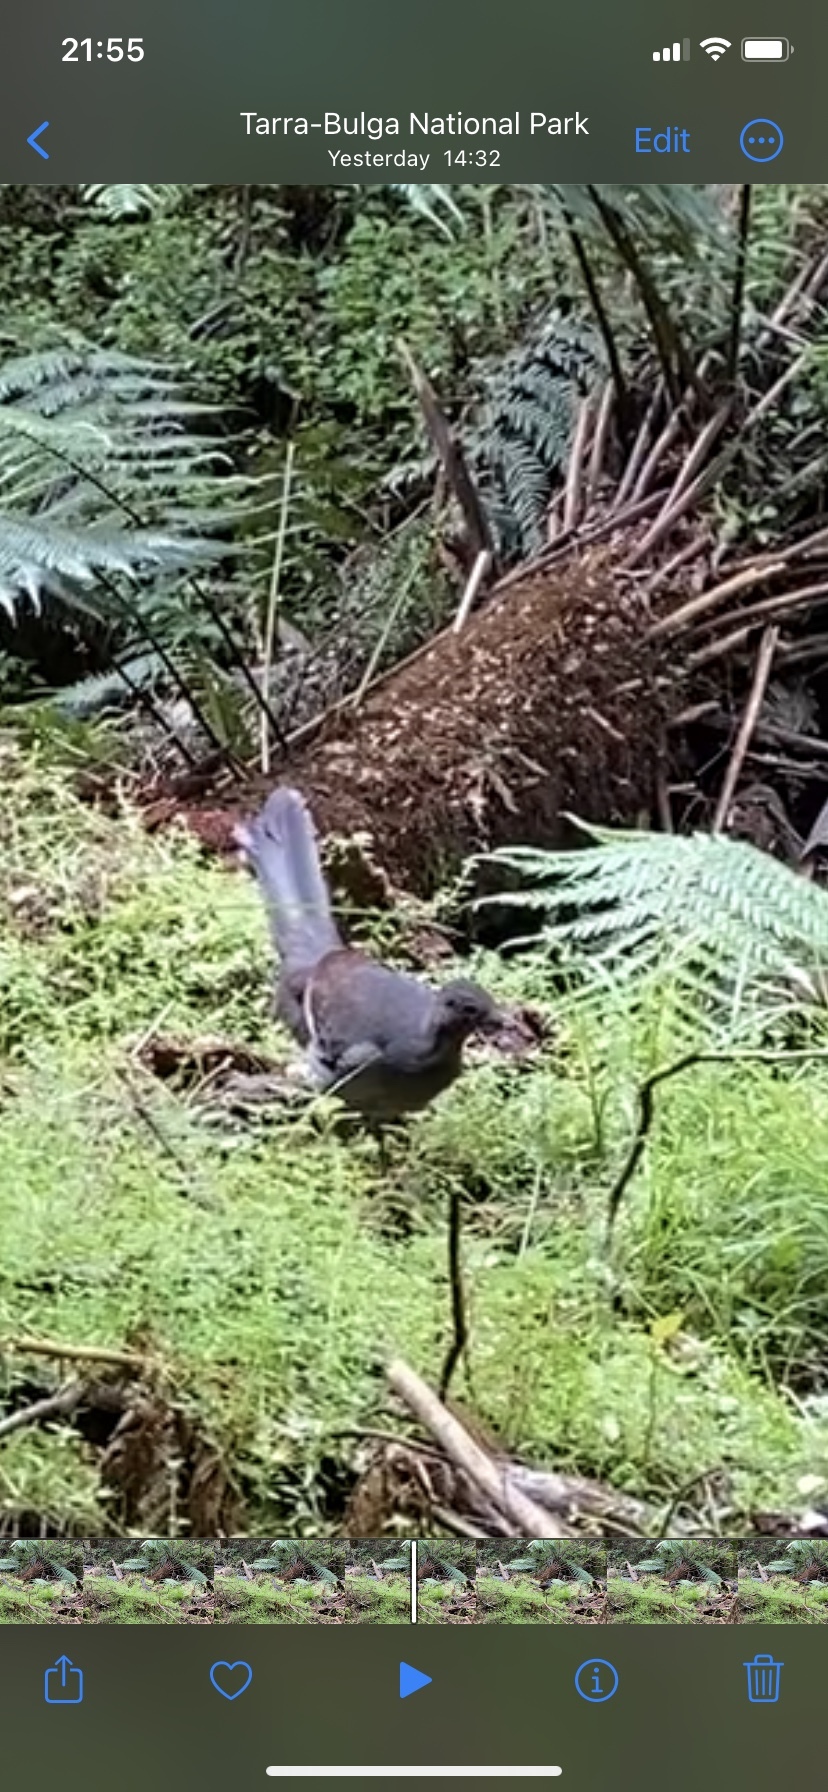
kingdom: Animalia
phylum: Chordata
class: Aves
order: Passeriformes
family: Menuridae
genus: Menura
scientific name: Menura novaehollandiae
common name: Superb lyrebird
